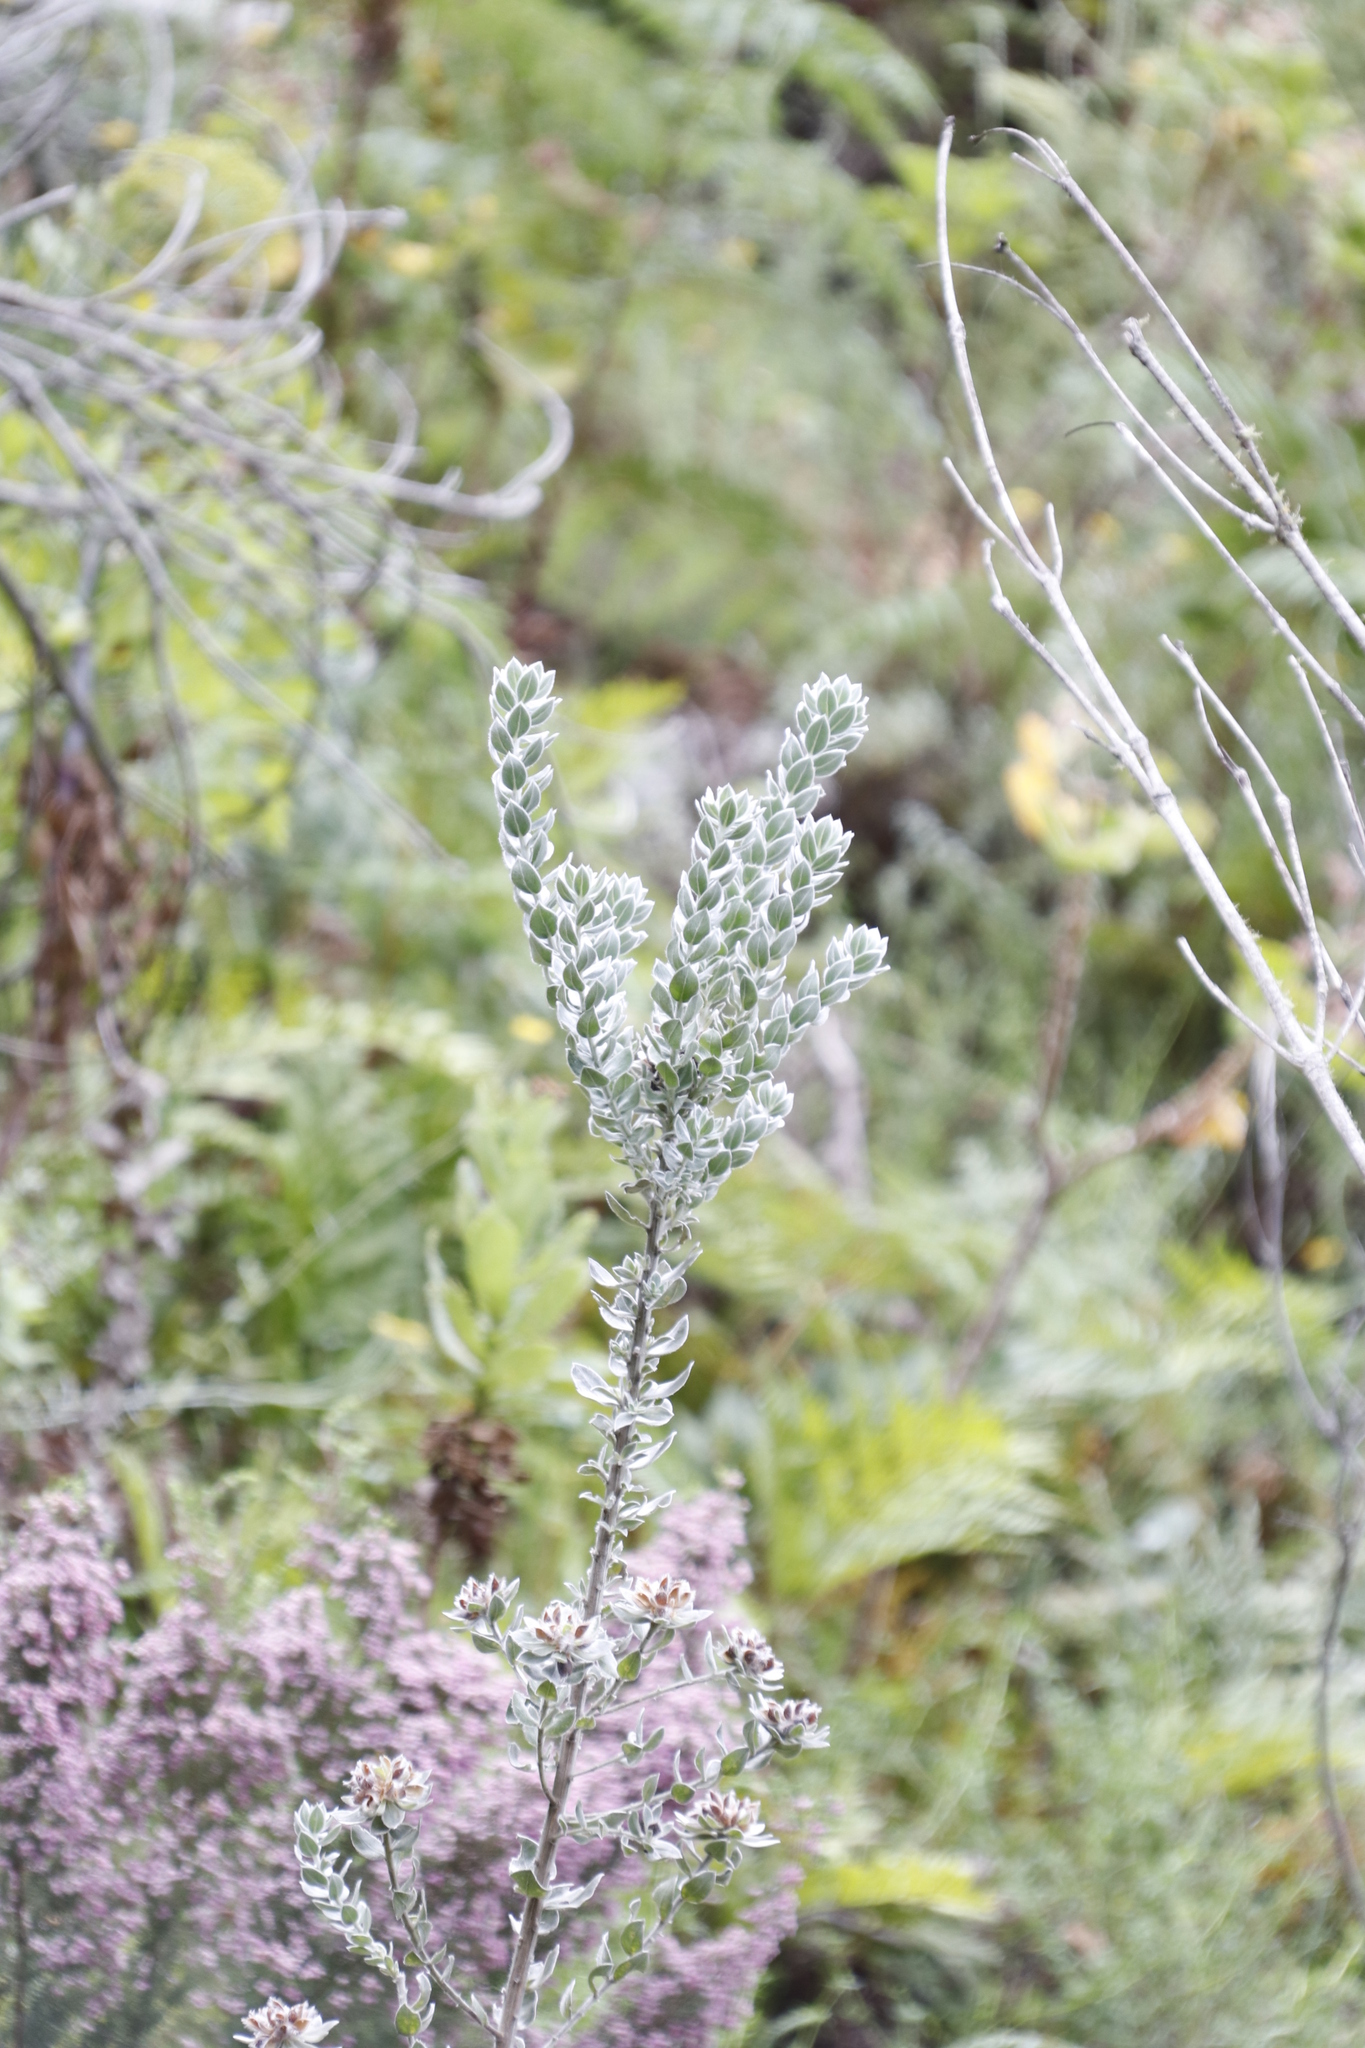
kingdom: Plantae
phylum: Tracheophyta
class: Magnoliopsida
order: Fabales
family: Fabaceae
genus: Xiphotheca
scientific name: Xiphotheca fruticosa
